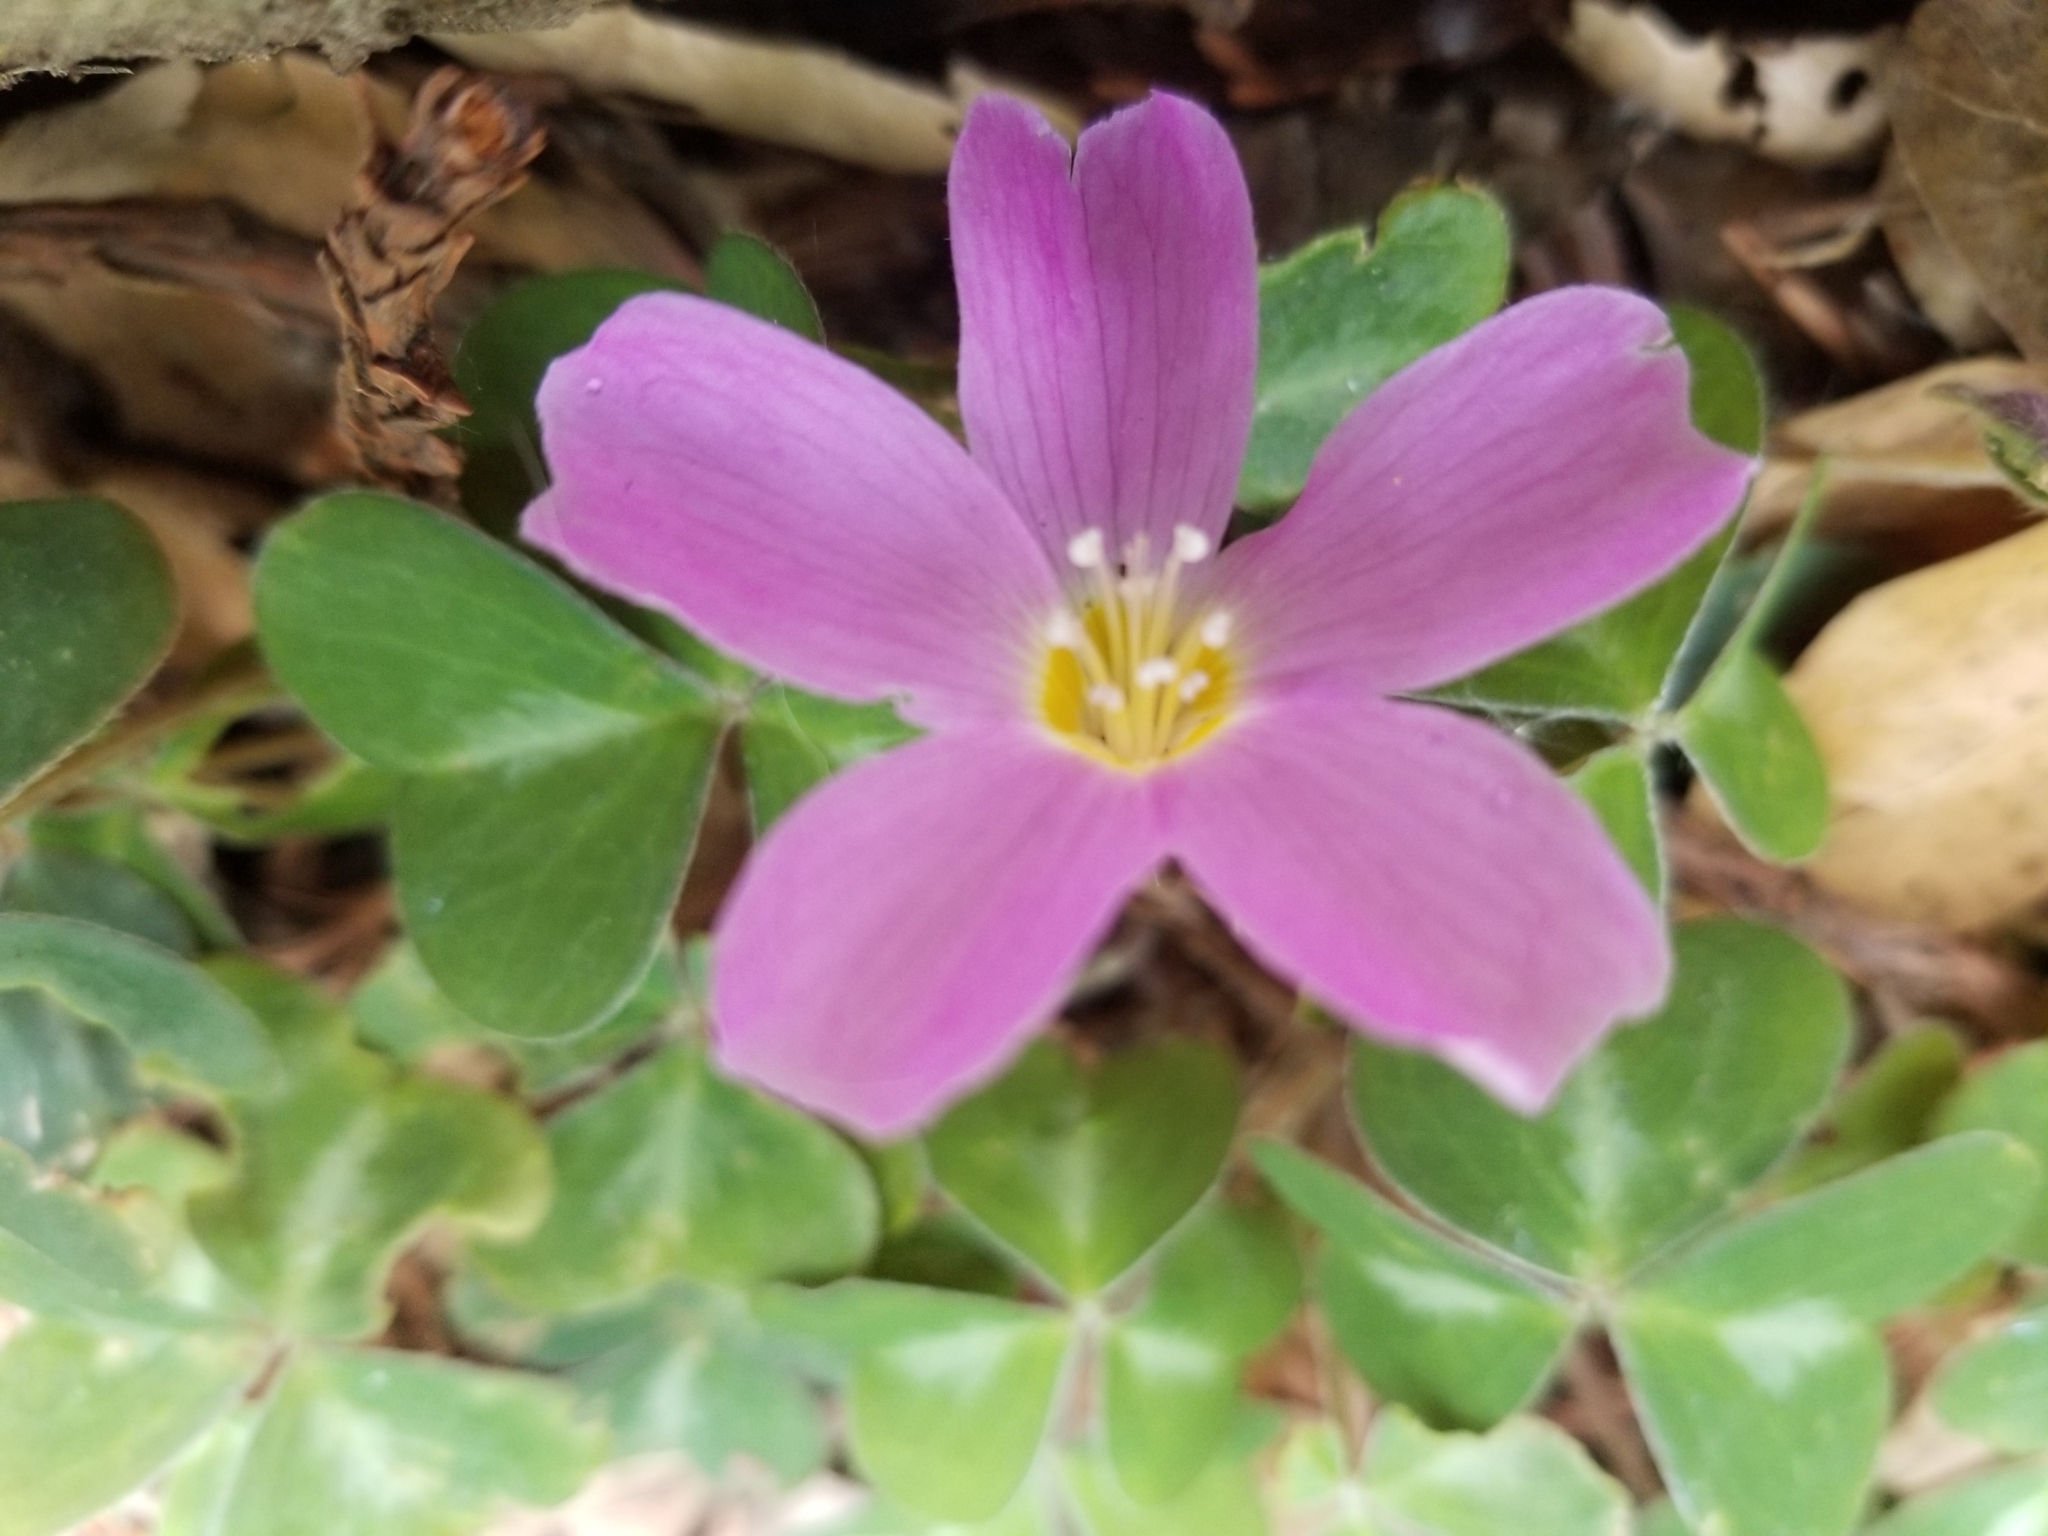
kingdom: Plantae
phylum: Tracheophyta
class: Magnoliopsida
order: Oxalidales
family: Oxalidaceae
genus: Oxalis
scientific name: Oxalis oregana
